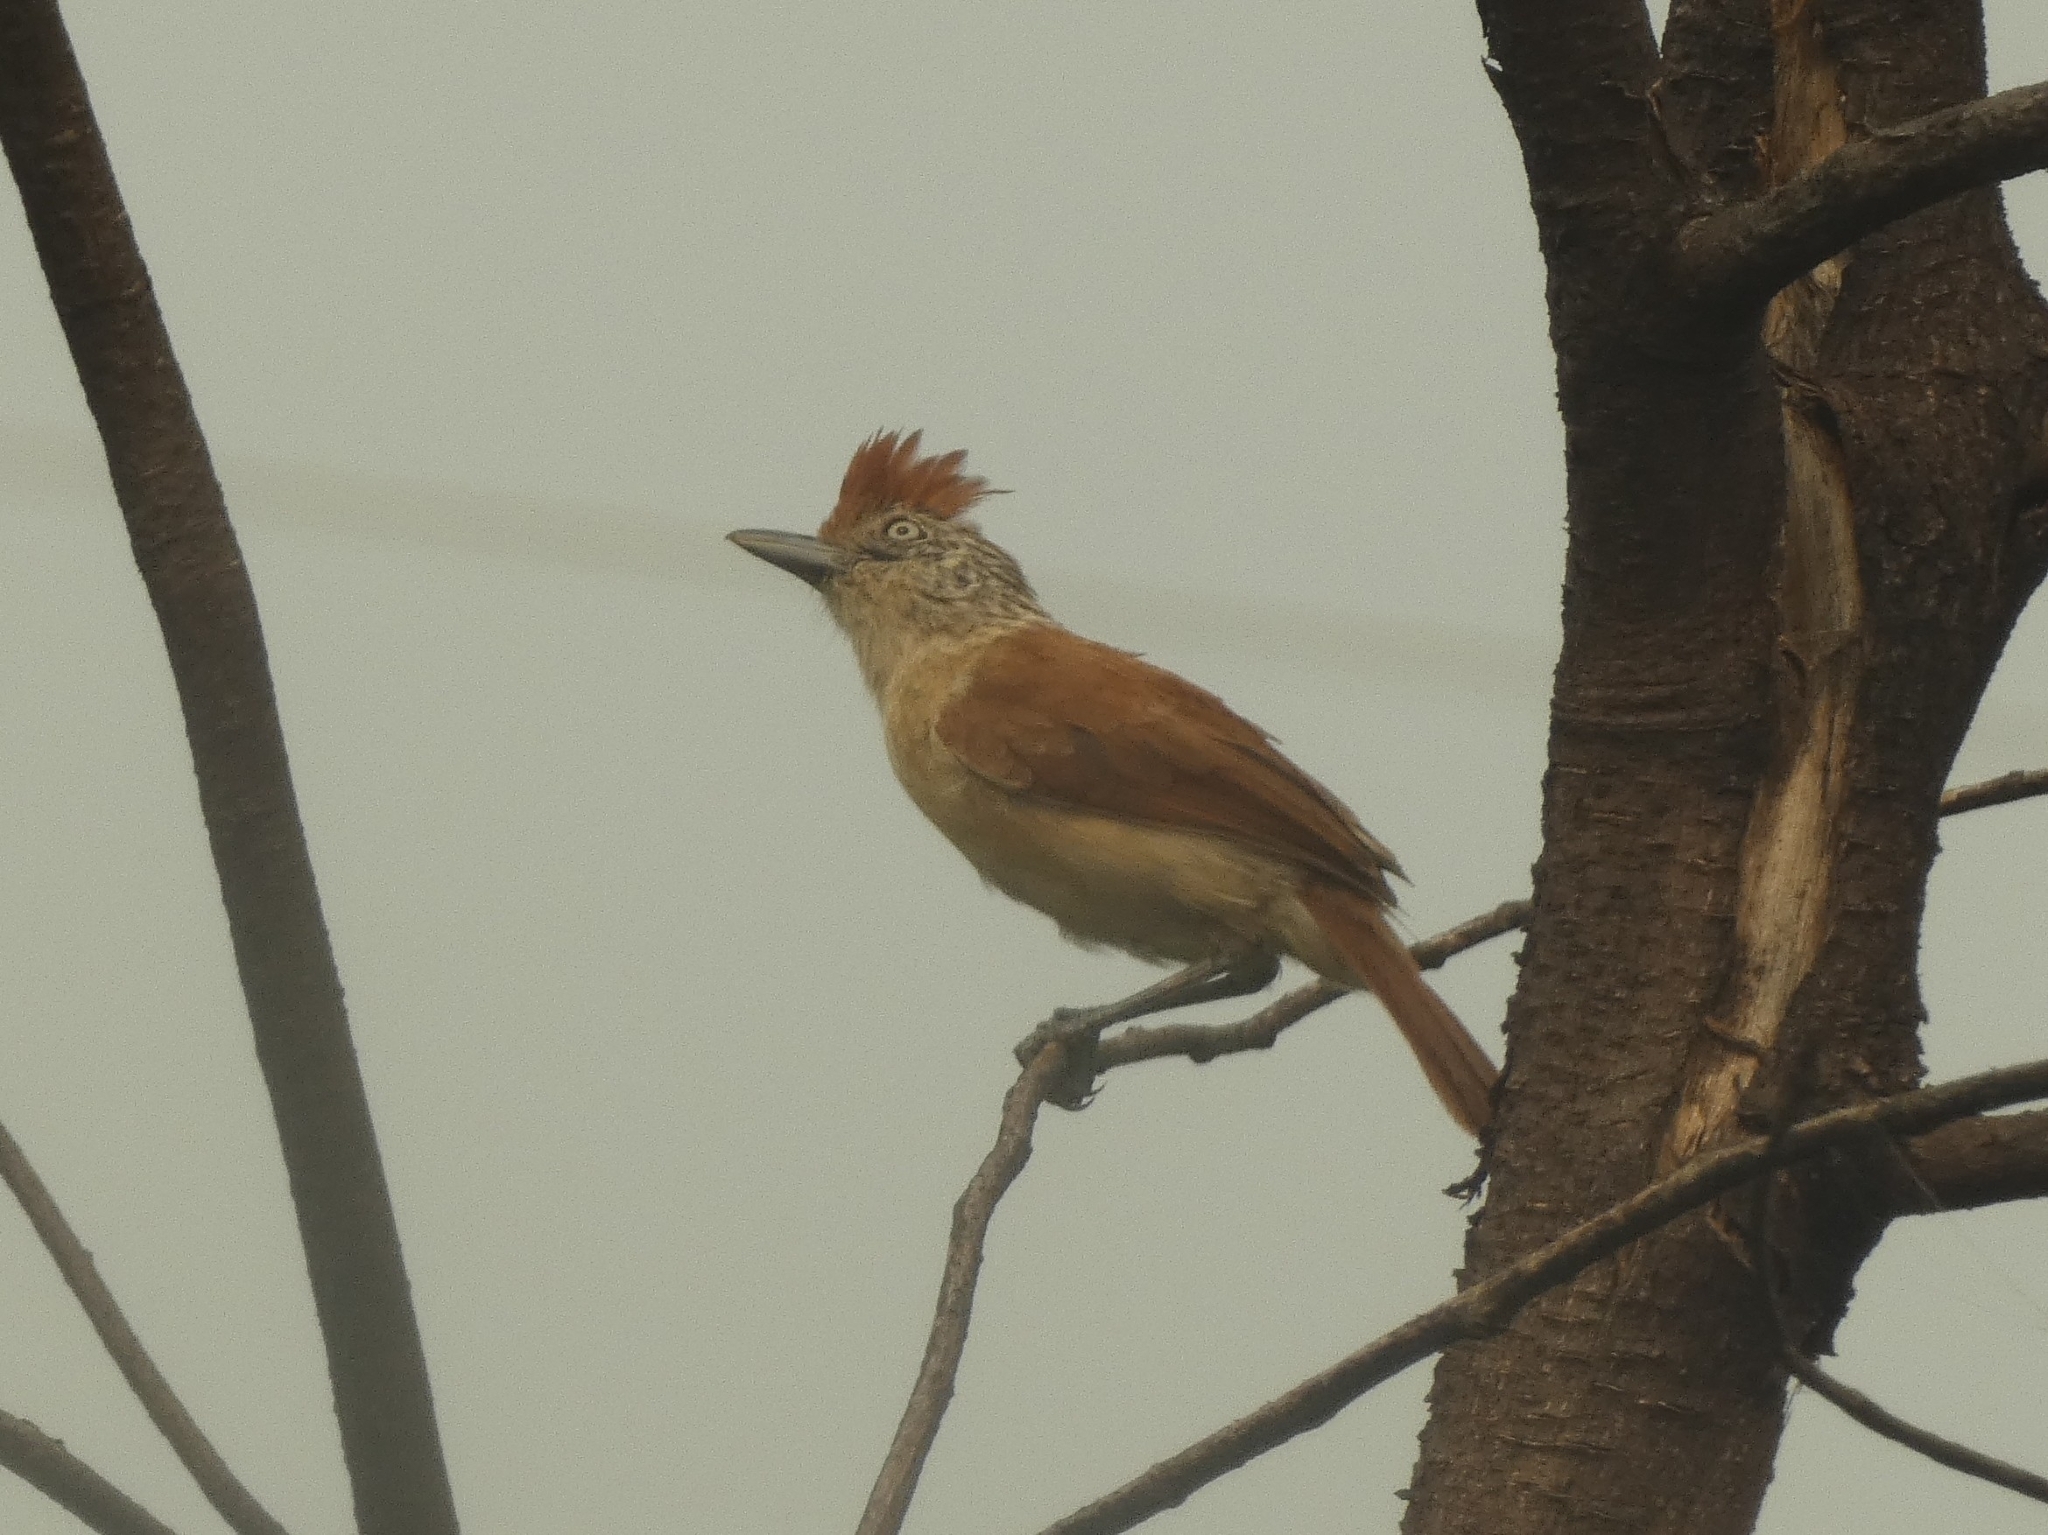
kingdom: Animalia
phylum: Chordata
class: Aves
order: Passeriformes
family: Thamnophilidae
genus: Thamnophilus
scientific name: Thamnophilus doliatus
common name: Barred antshrike
